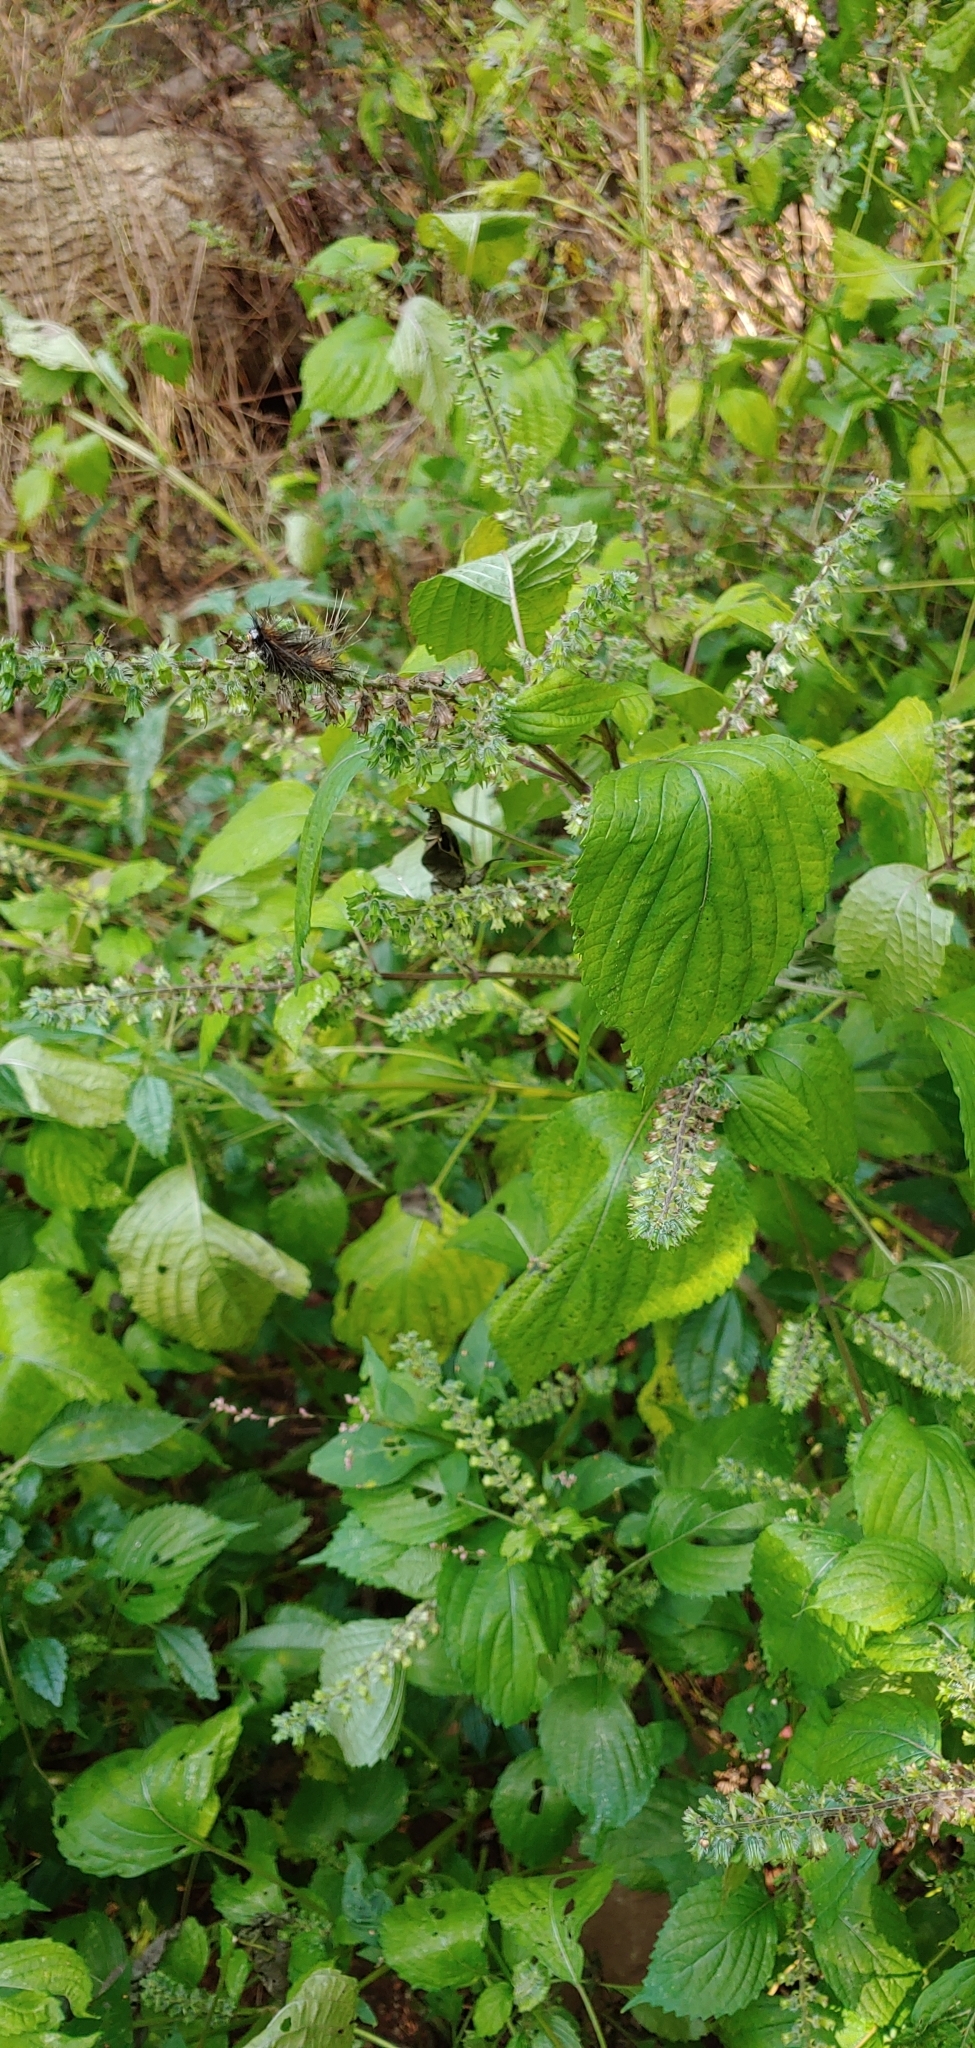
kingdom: Plantae
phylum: Tracheophyta
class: Magnoliopsida
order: Lamiales
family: Lamiaceae
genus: Perilla
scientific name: Perilla frutescens
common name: Perilla
